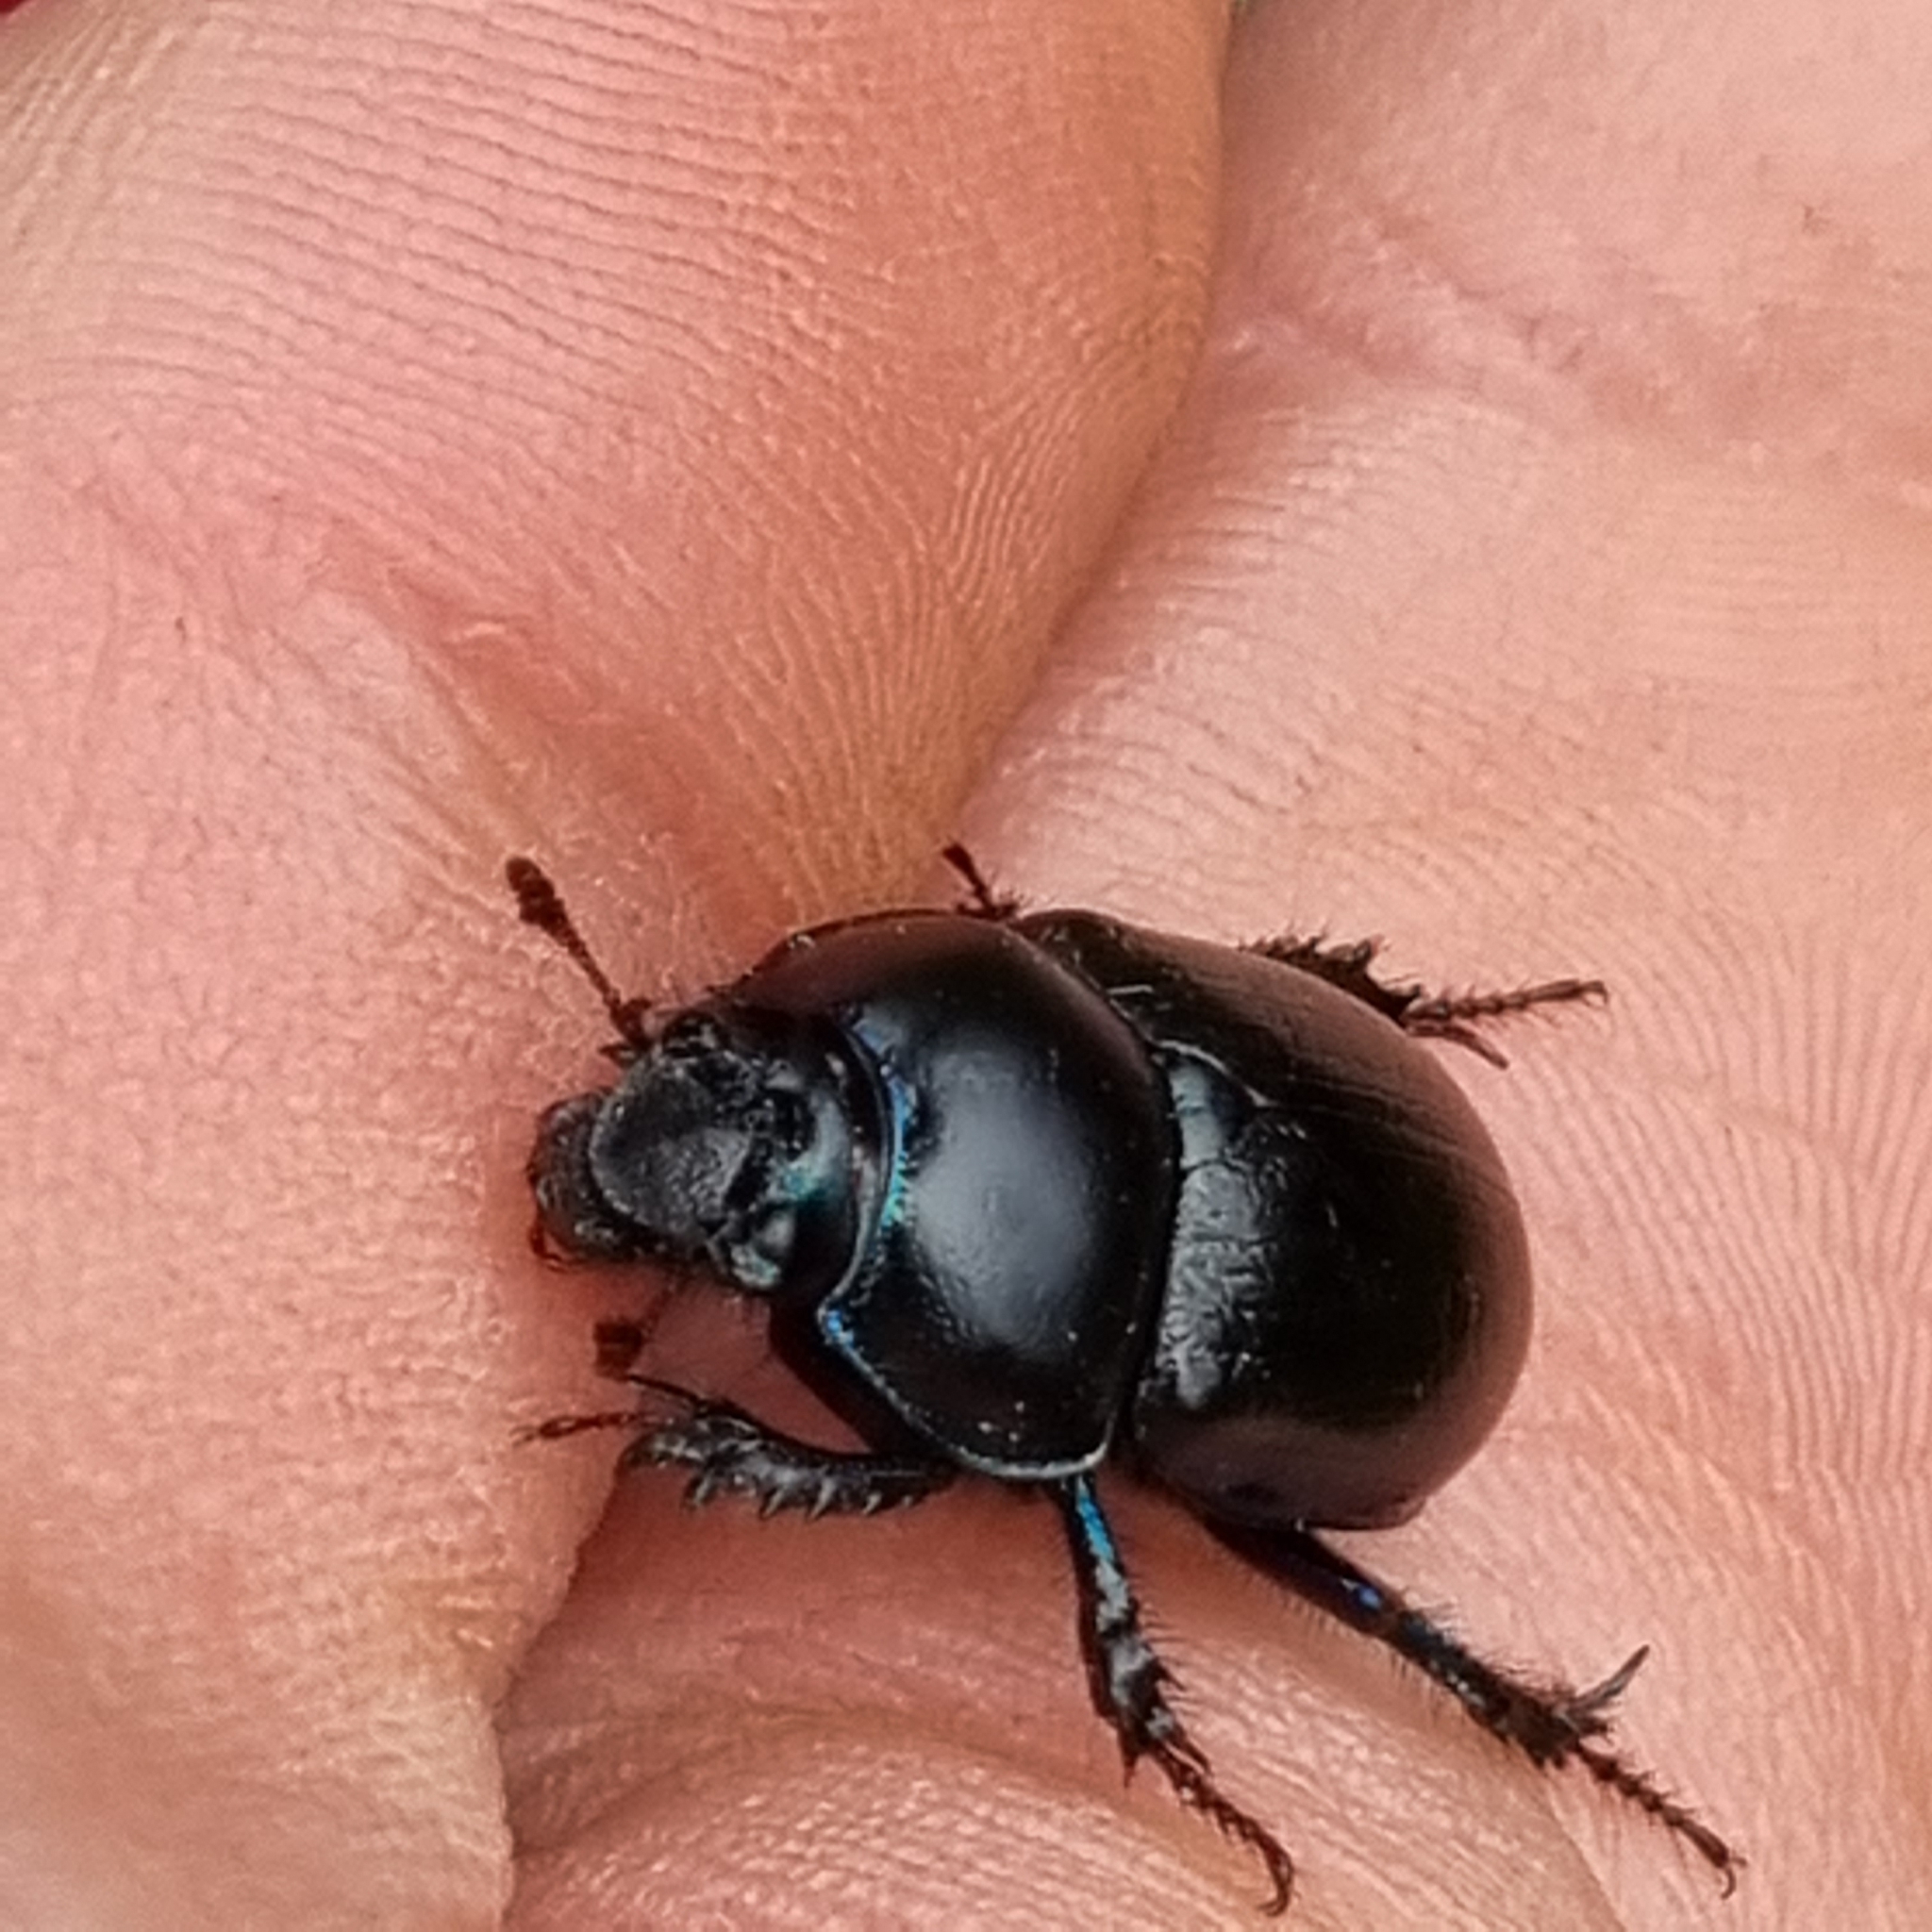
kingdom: Animalia
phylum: Arthropoda
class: Insecta
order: Coleoptera
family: Geotrupidae
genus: Anoplotrupes
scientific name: Anoplotrupes stercorosus
